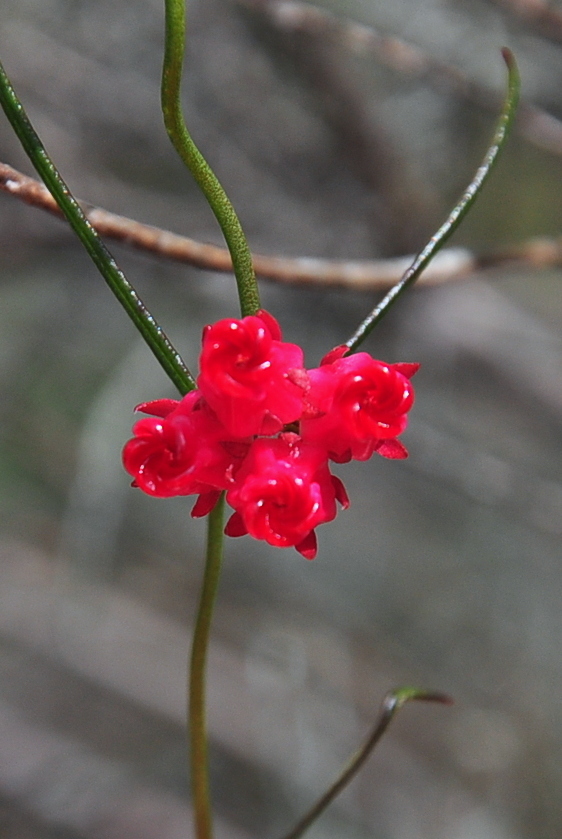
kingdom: Plantae
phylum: Tracheophyta
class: Magnoliopsida
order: Gentianales
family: Apocynaceae
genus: Microloma
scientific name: Microloma tenuifolium
